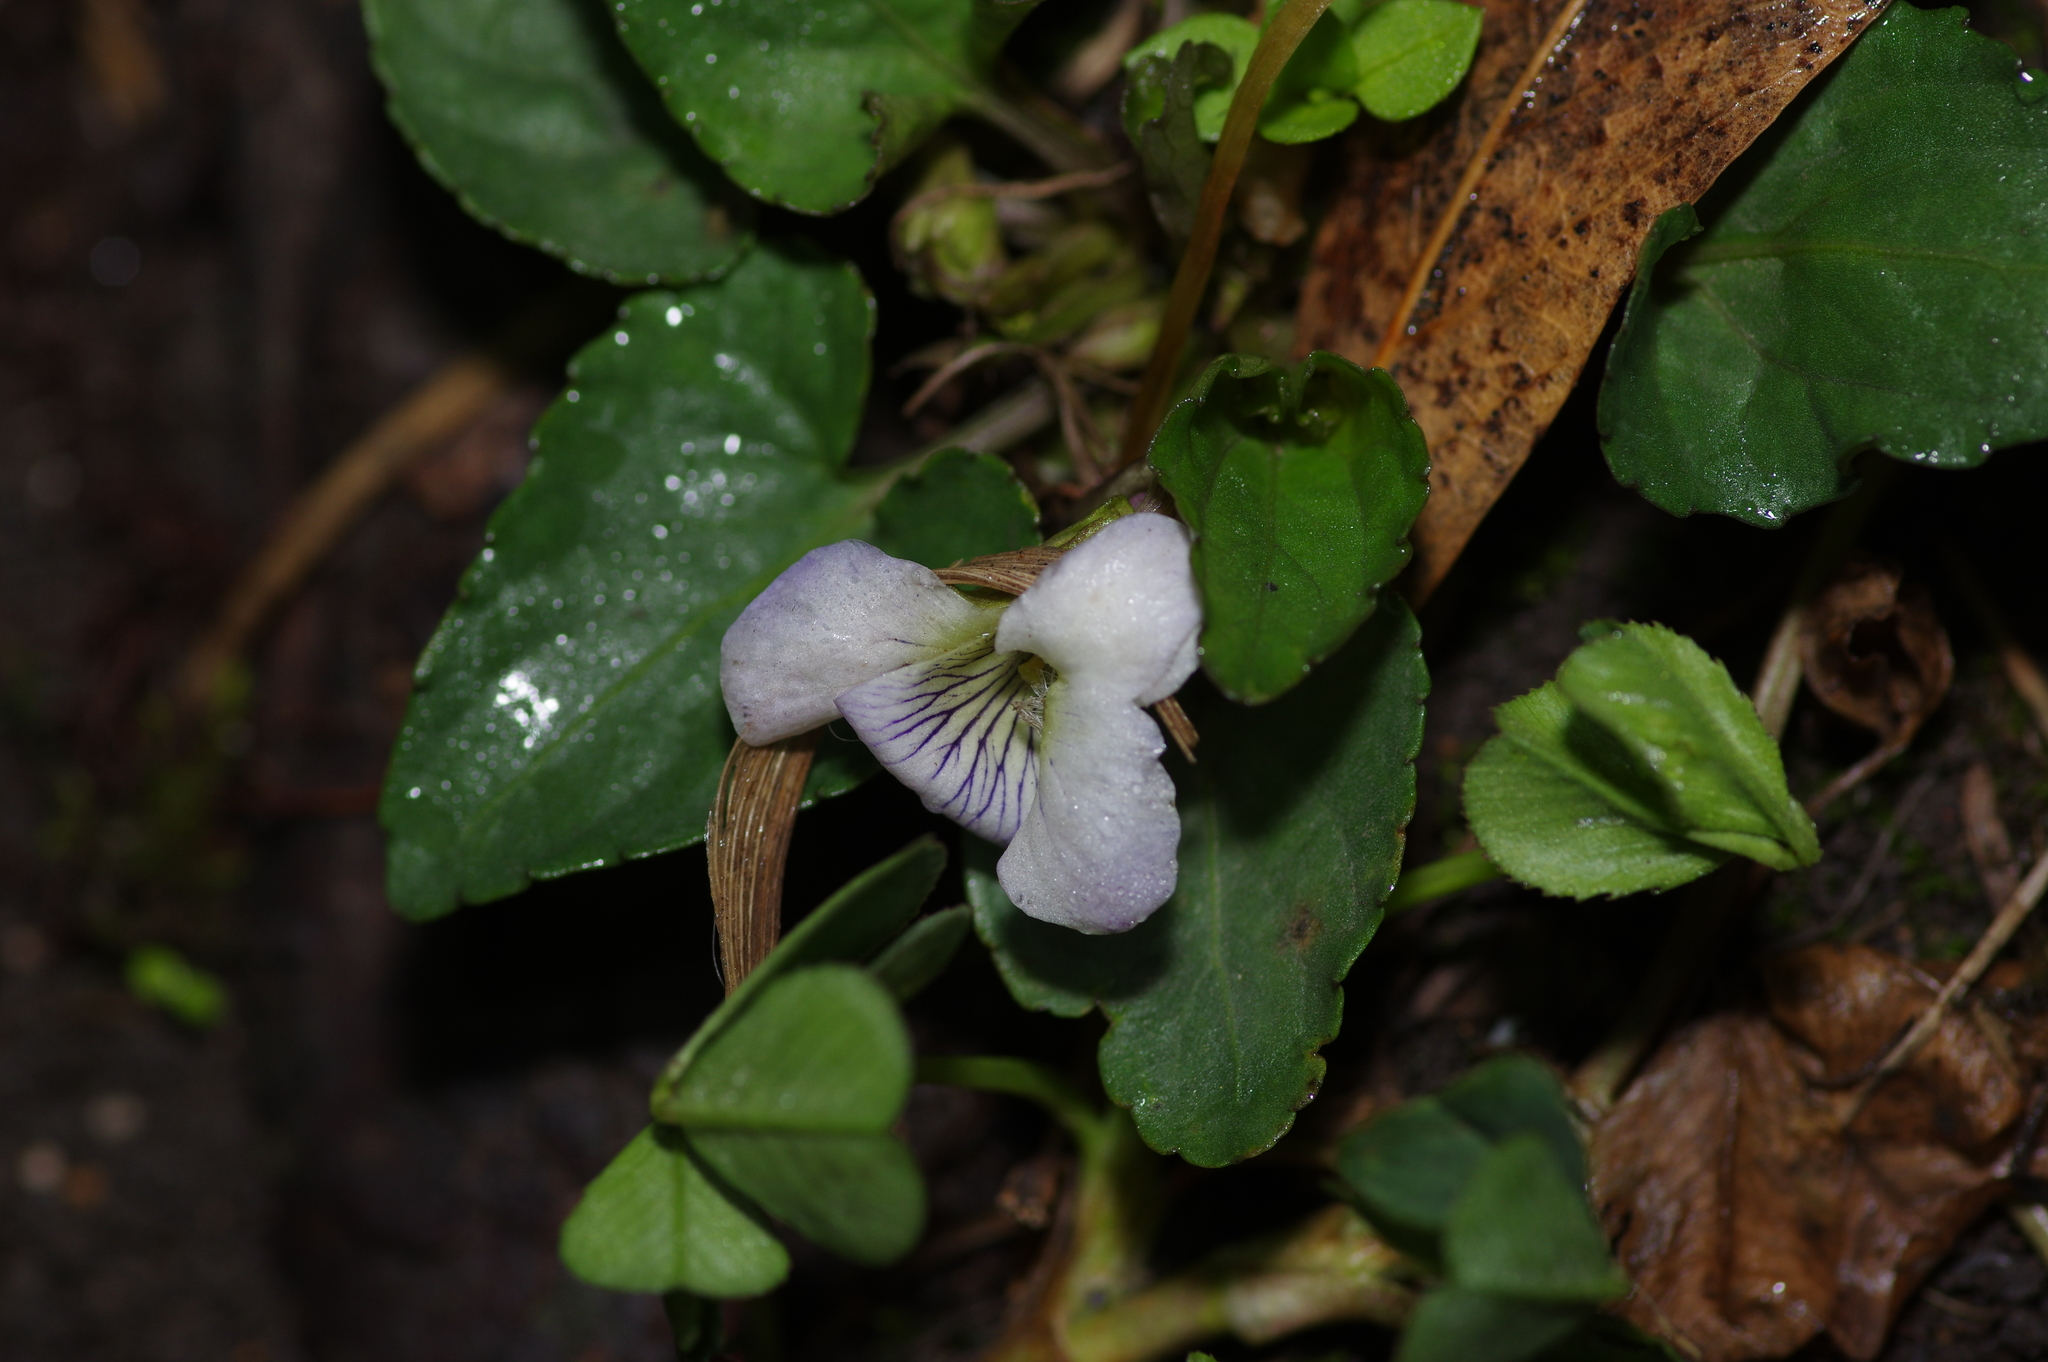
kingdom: Plantae
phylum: Tracheophyta
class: Magnoliopsida
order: Malpighiales
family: Violaceae
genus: Viola
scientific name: Viola missouriensis
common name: Missouri violet
